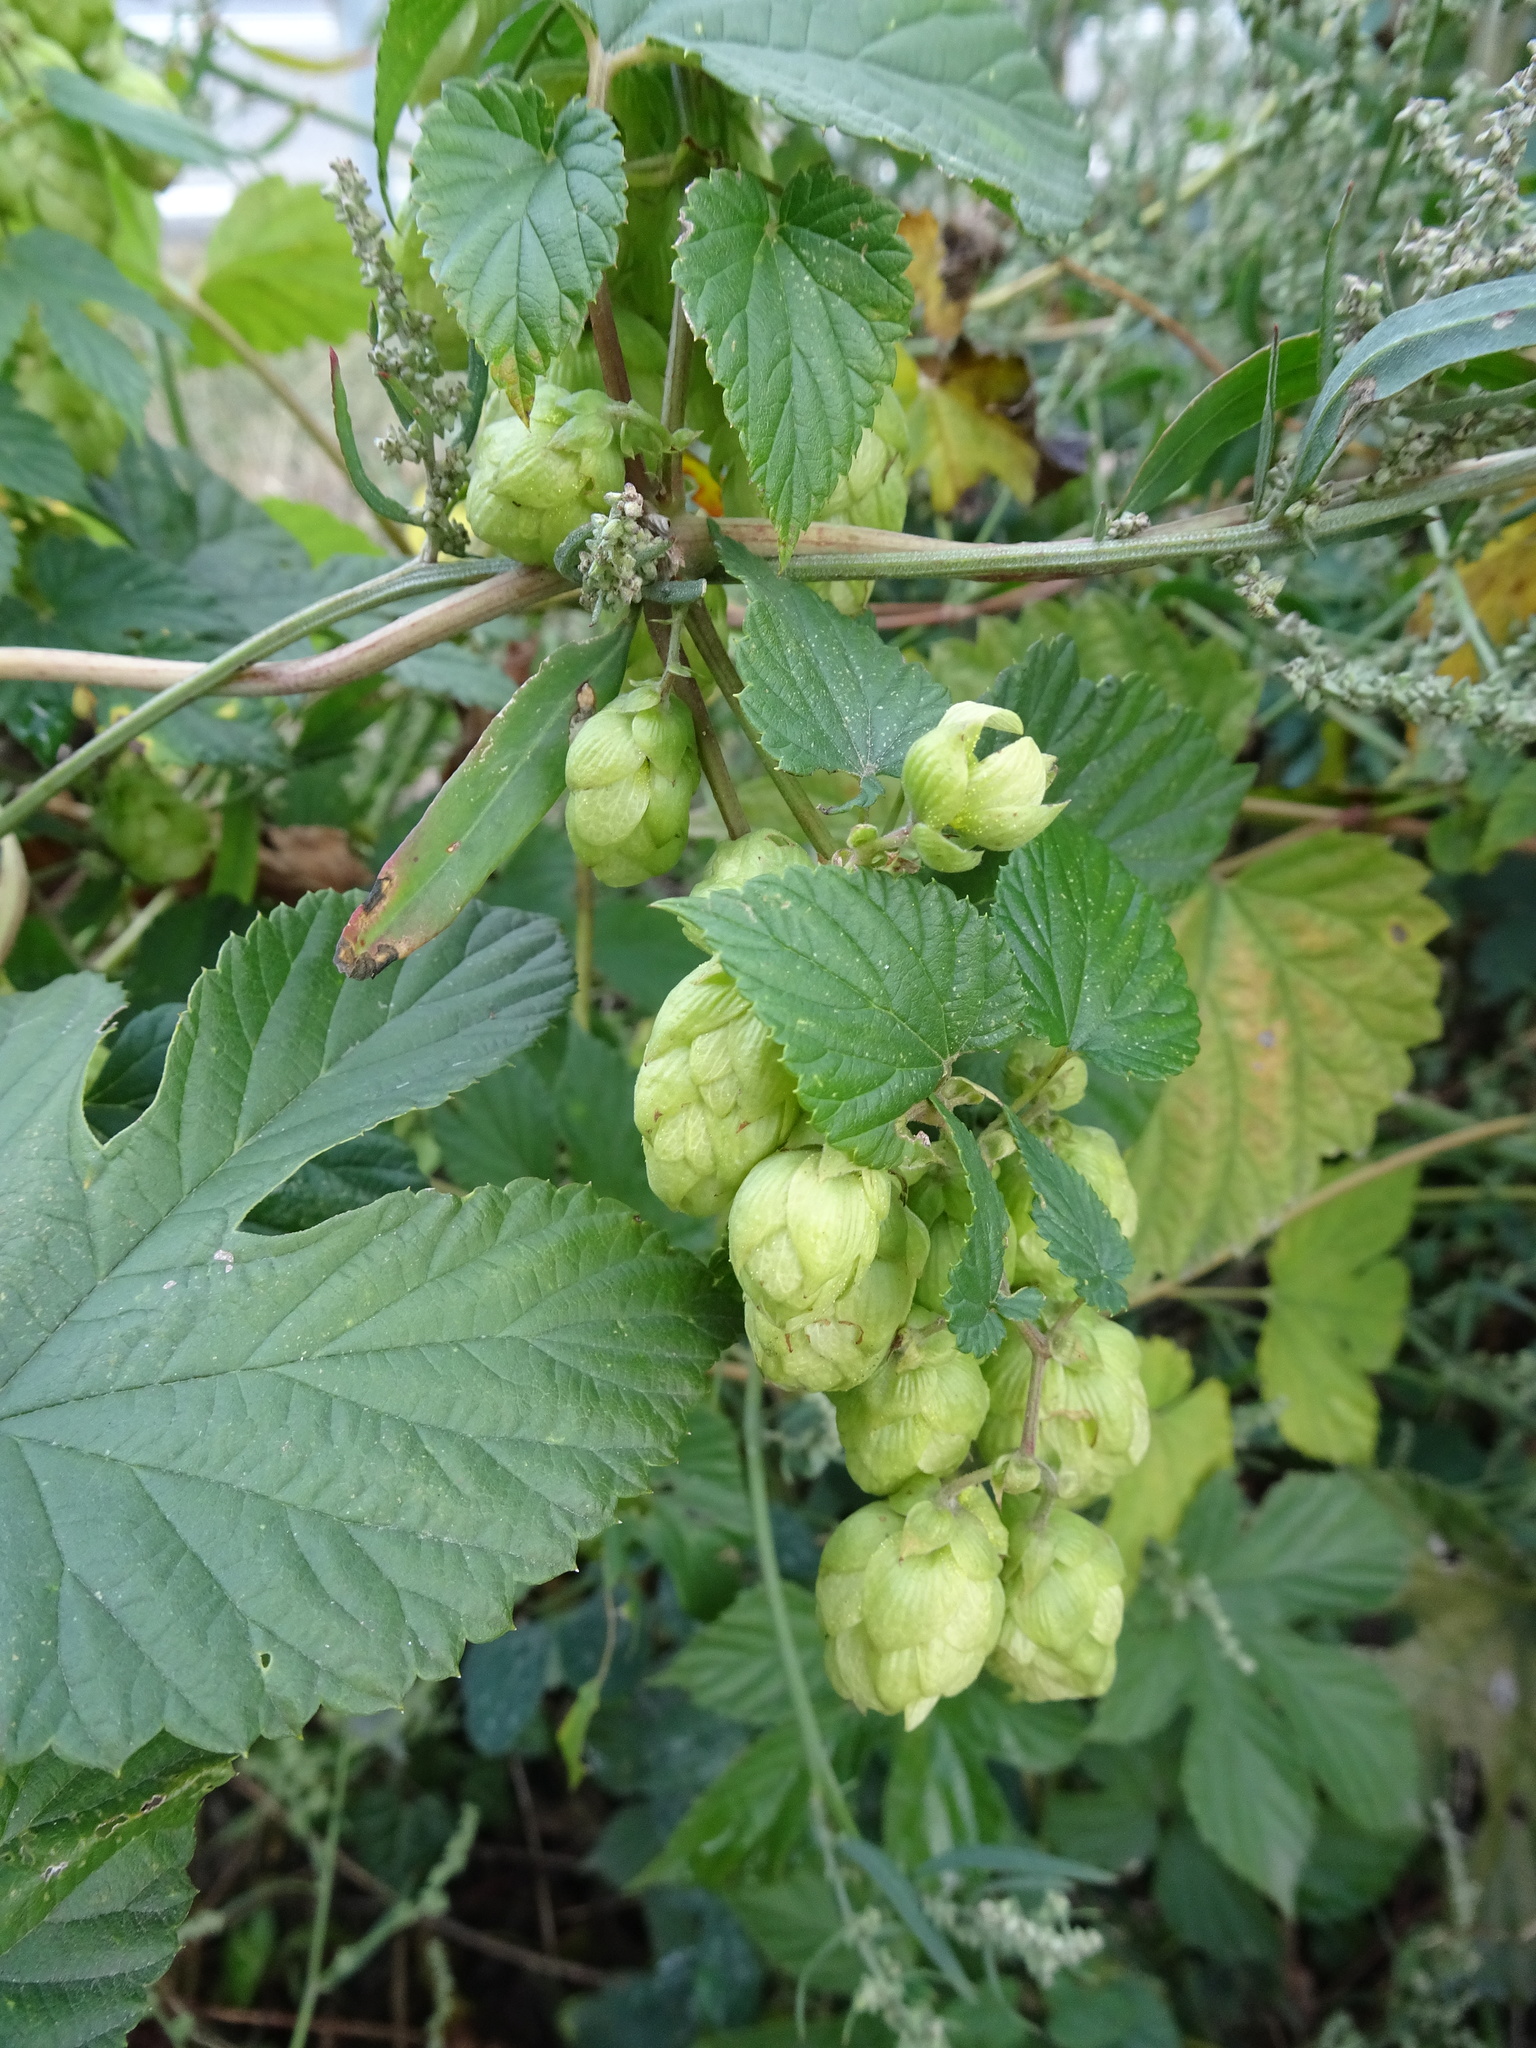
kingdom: Plantae
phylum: Tracheophyta
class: Magnoliopsida
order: Rosales
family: Cannabaceae
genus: Humulus
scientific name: Humulus lupulus
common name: Hop
